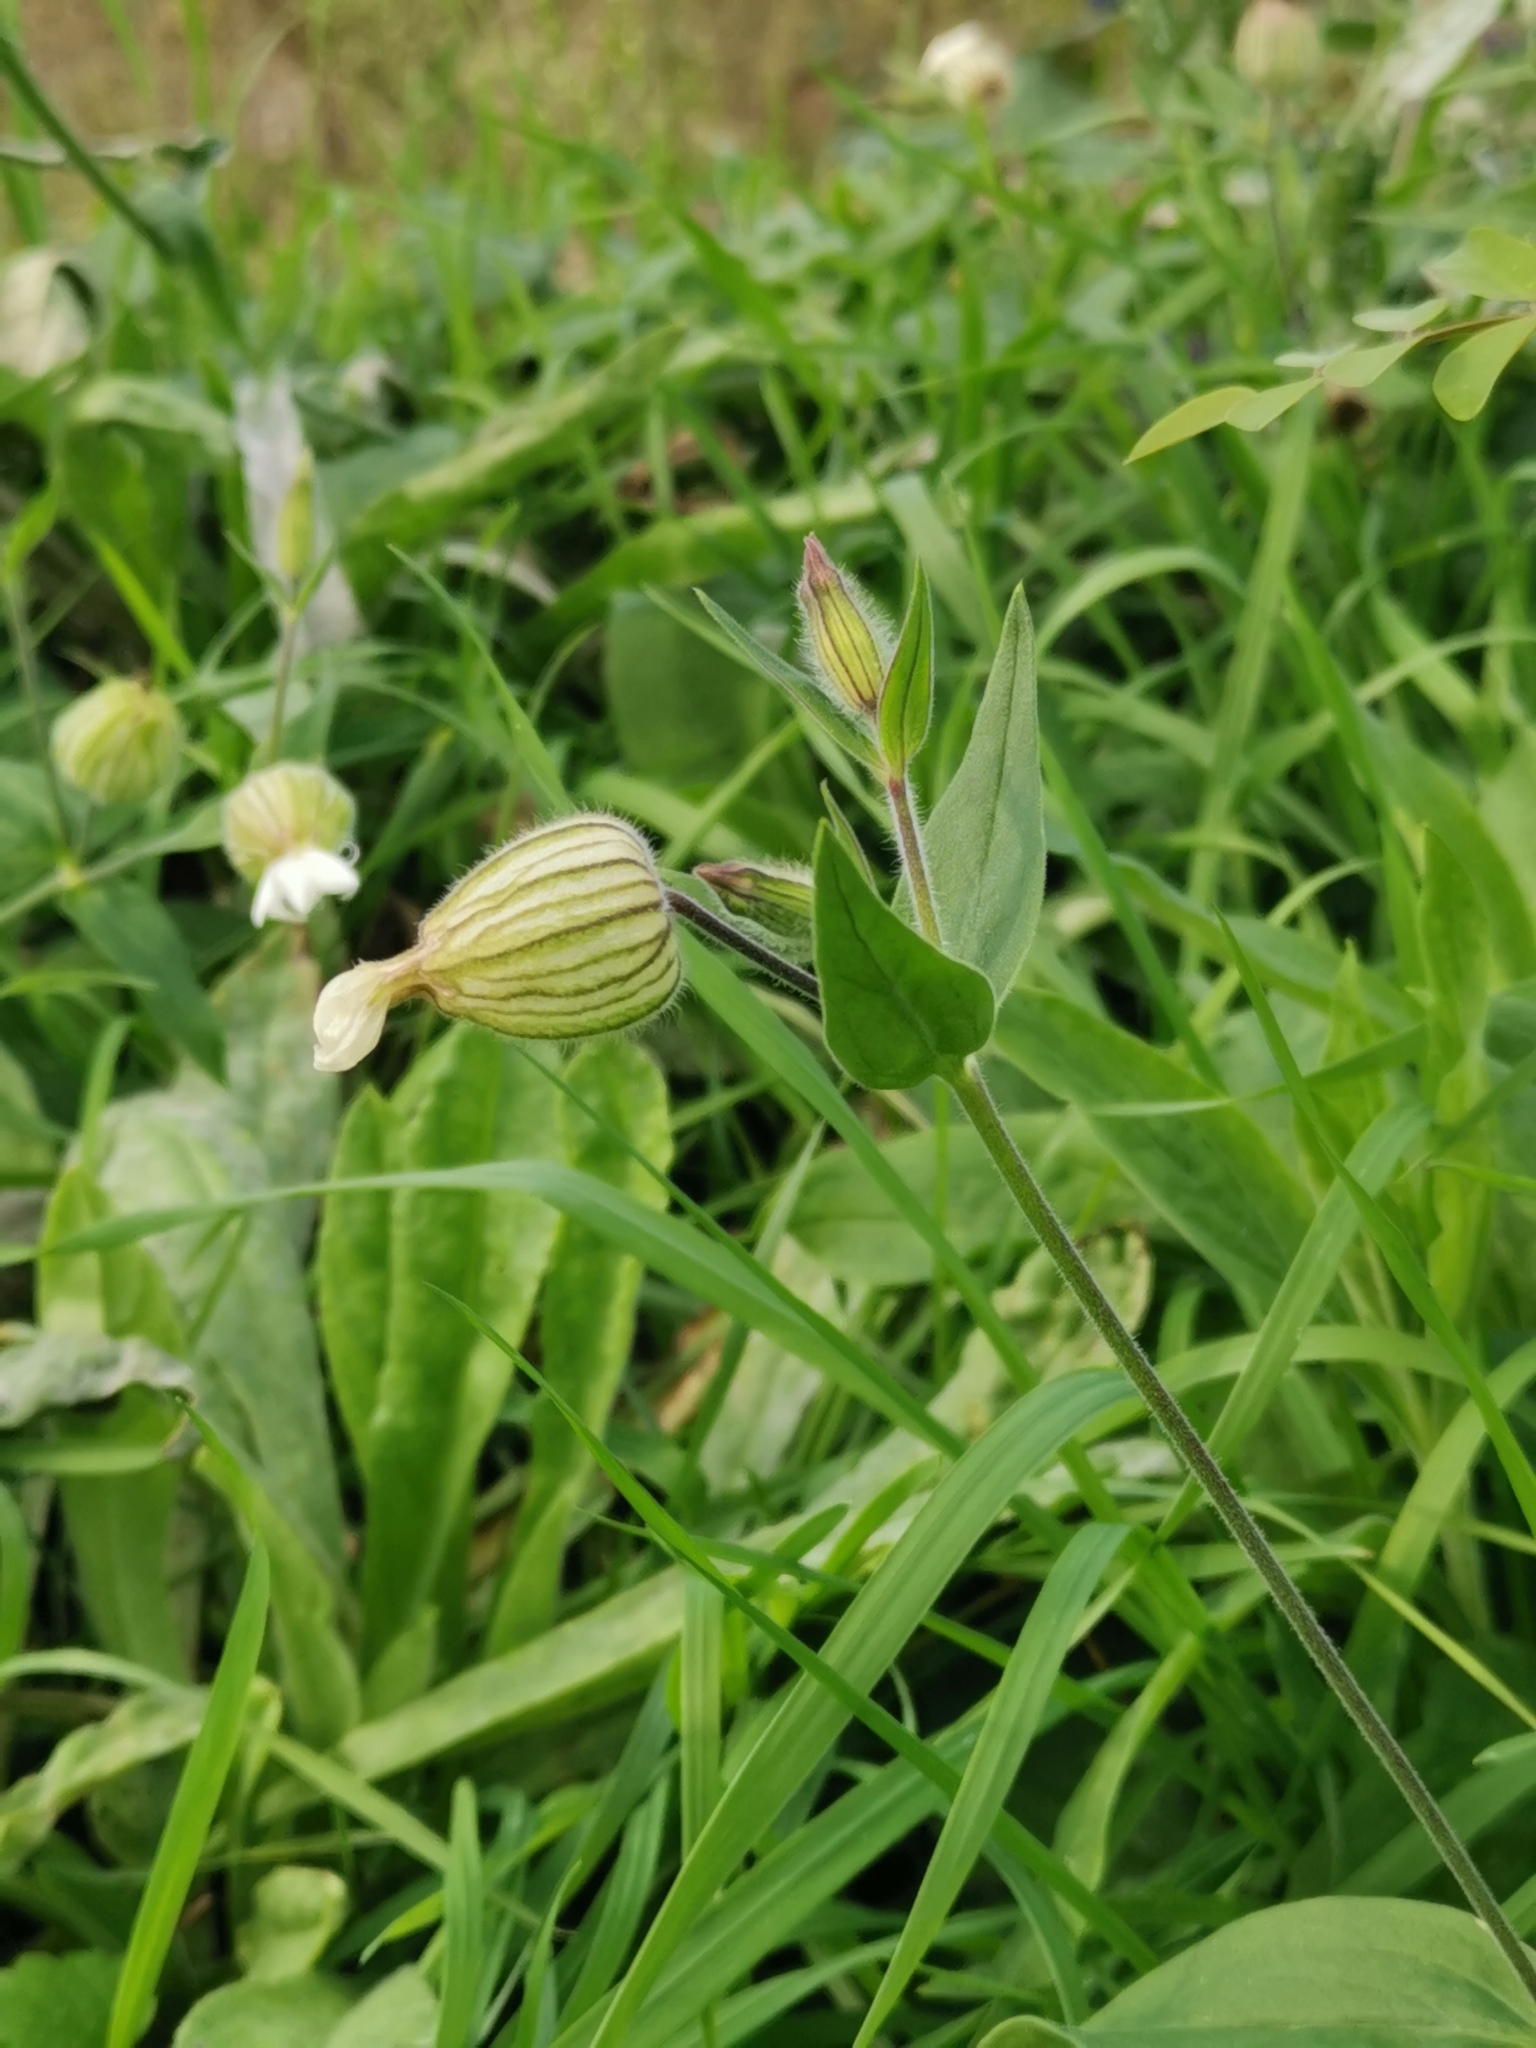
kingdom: Plantae
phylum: Tracheophyta
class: Magnoliopsida
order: Caryophyllales
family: Caryophyllaceae
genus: Silene
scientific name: Silene latifolia
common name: White campion
